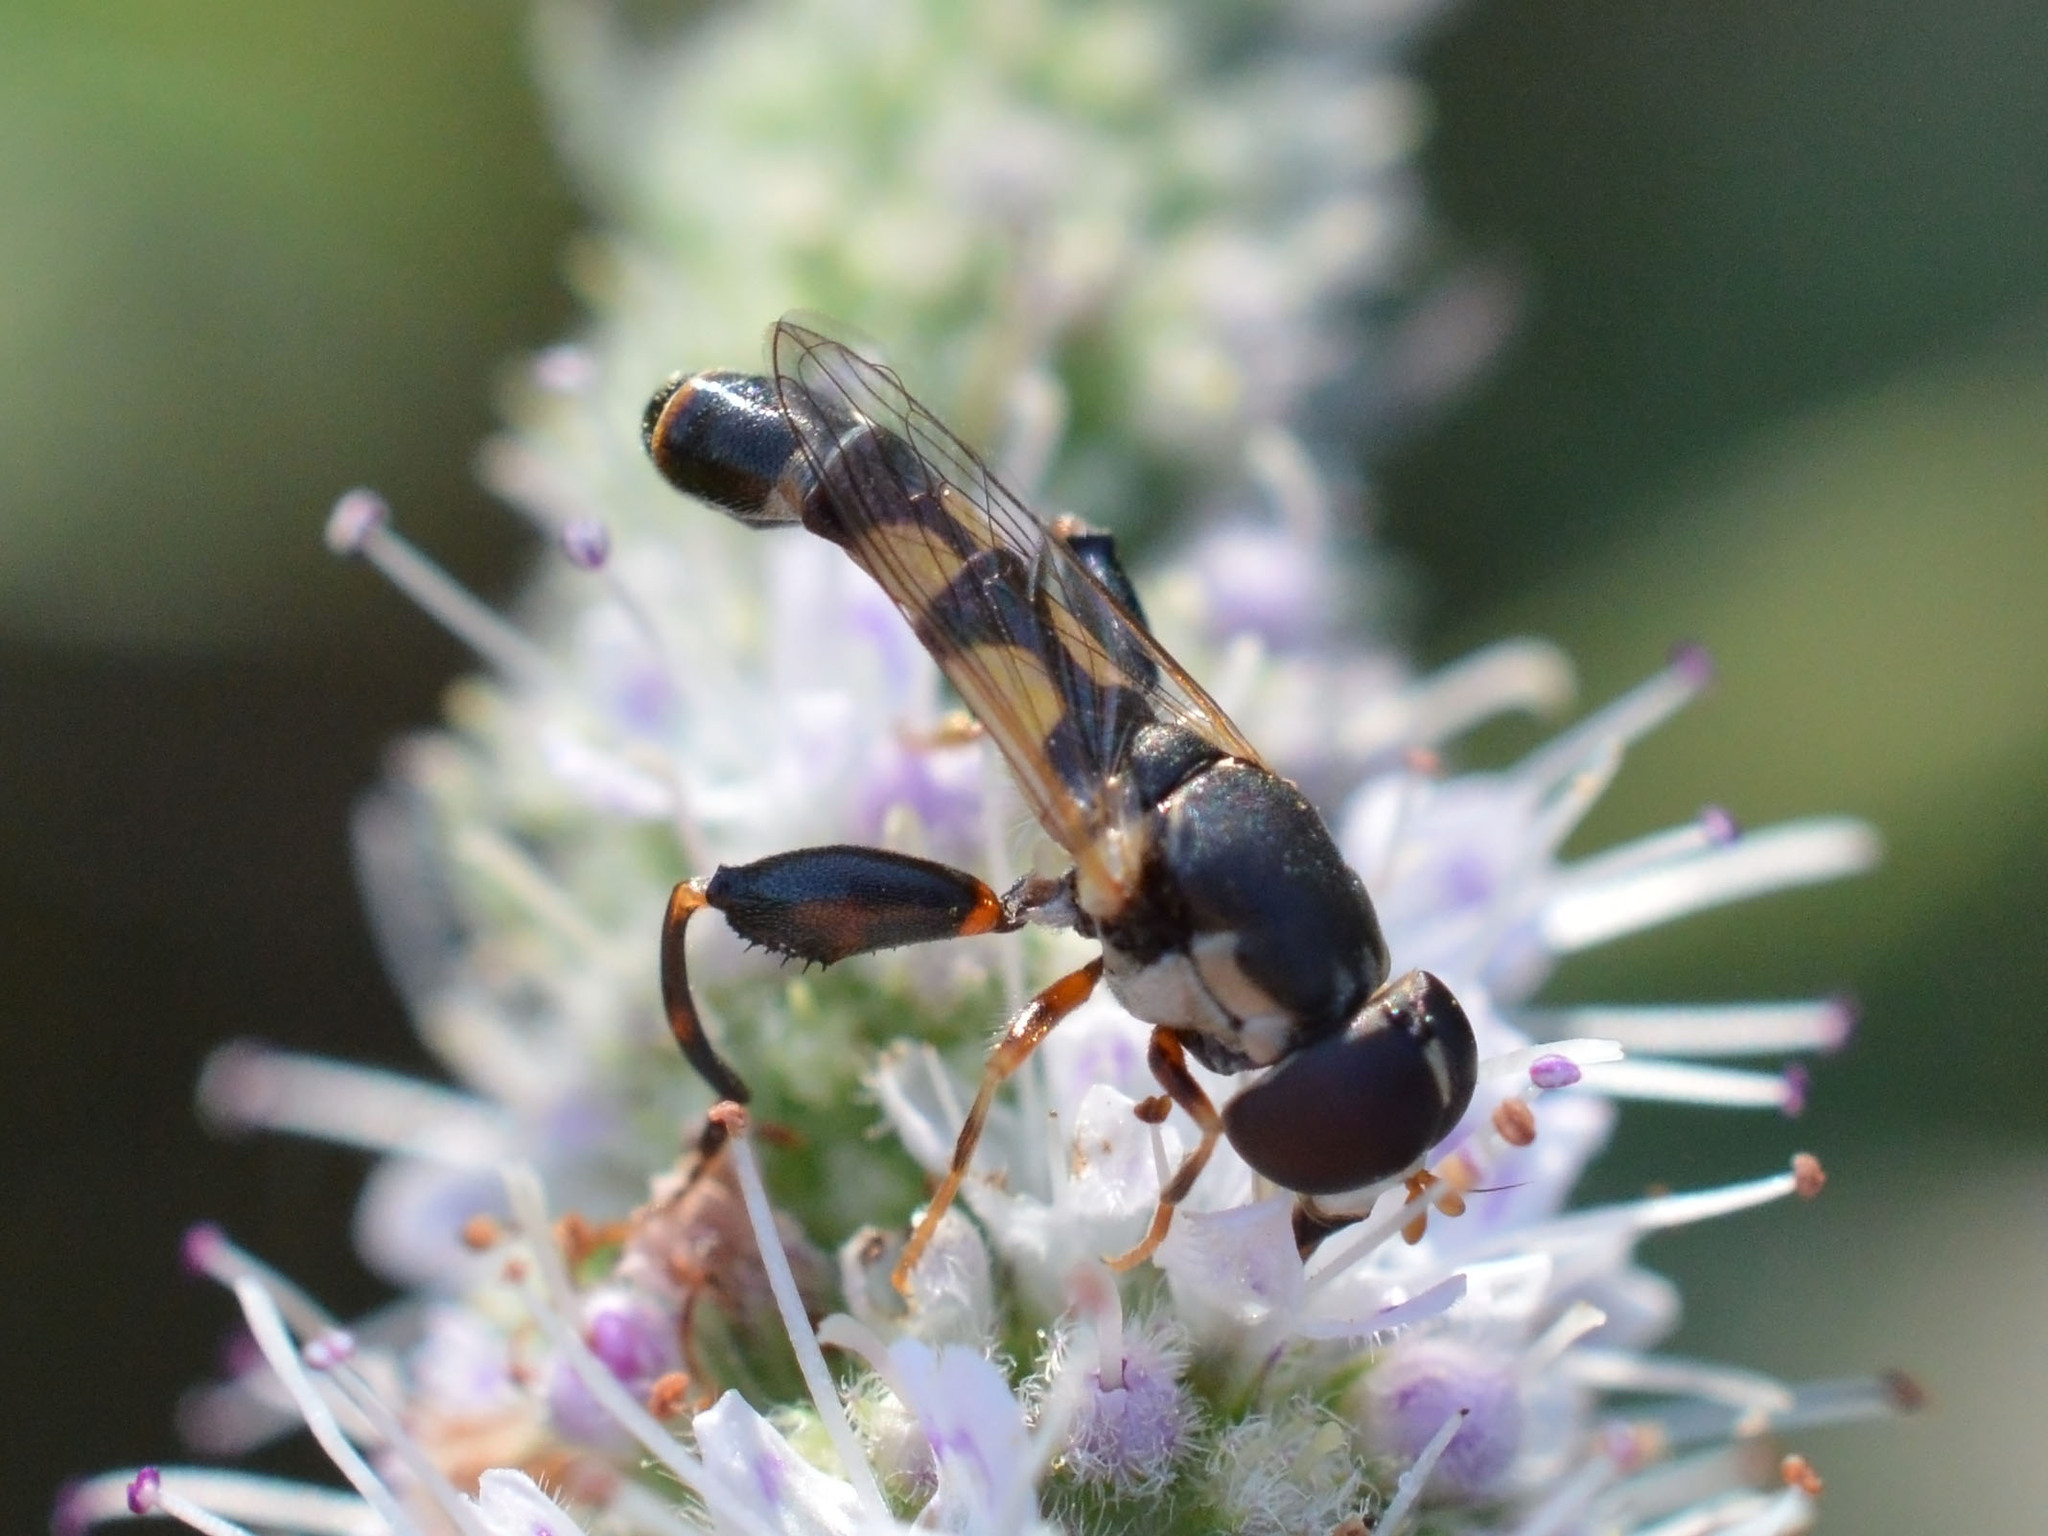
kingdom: Animalia
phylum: Arthropoda
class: Insecta
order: Diptera
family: Syrphidae
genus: Syritta
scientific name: Syritta pipiens
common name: Hover fly
